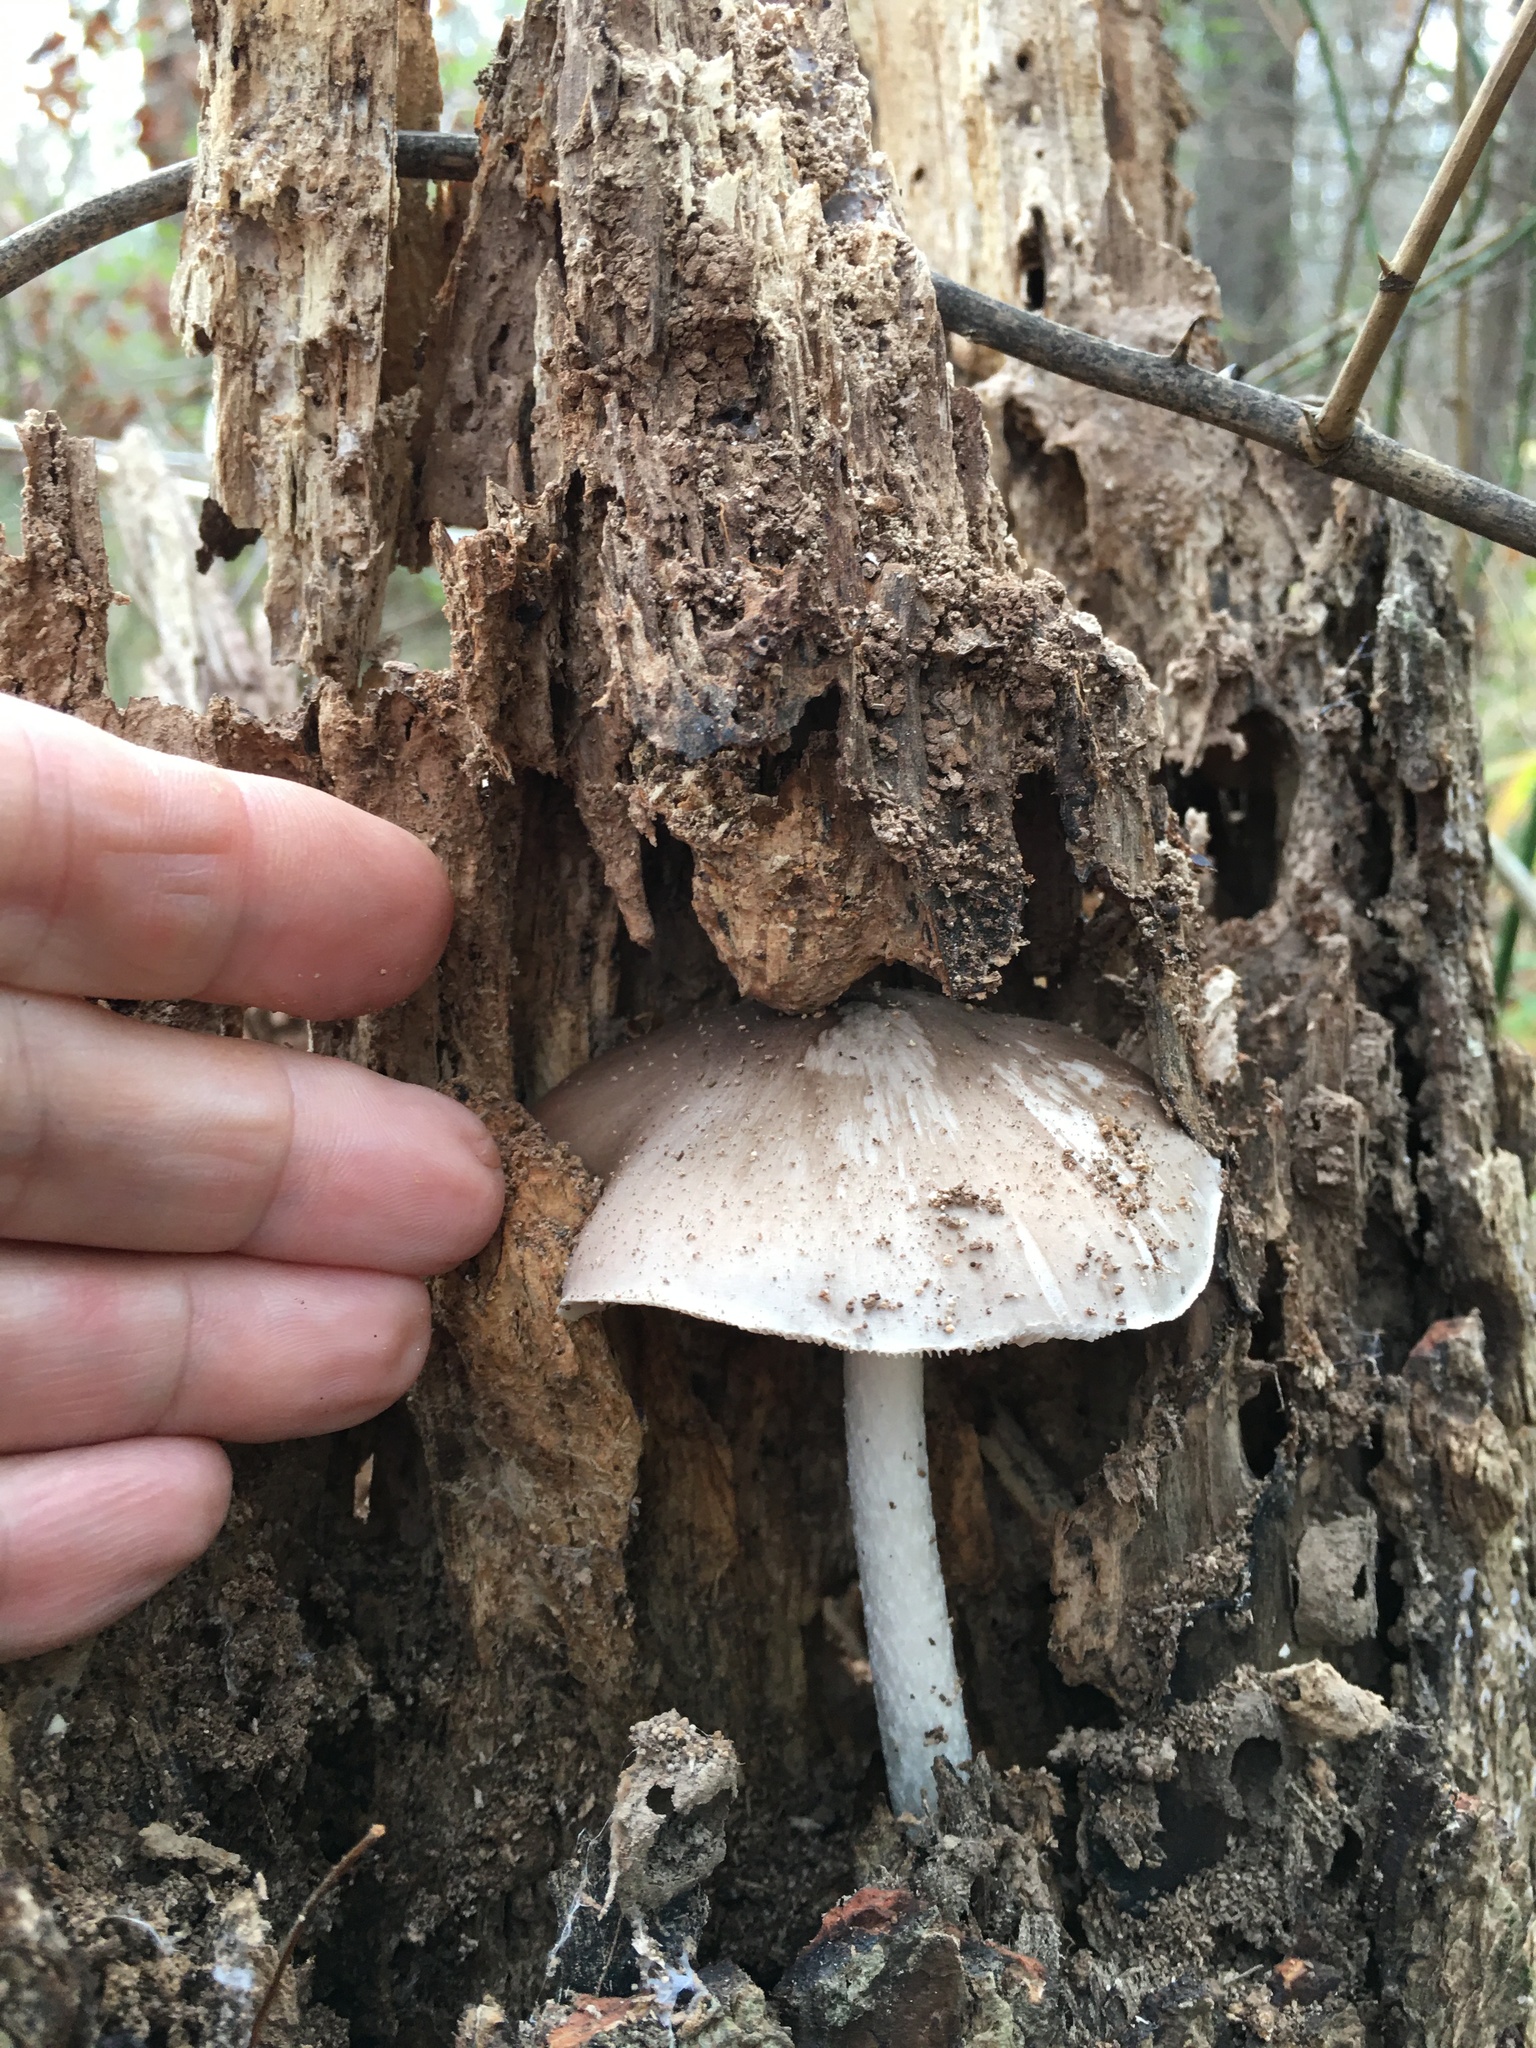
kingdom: Fungi
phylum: Basidiomycota
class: Agaricomycetes
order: Agaricales
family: Pluteaceae
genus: Pluteus
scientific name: Pluteus cervinus
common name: Deer shield
